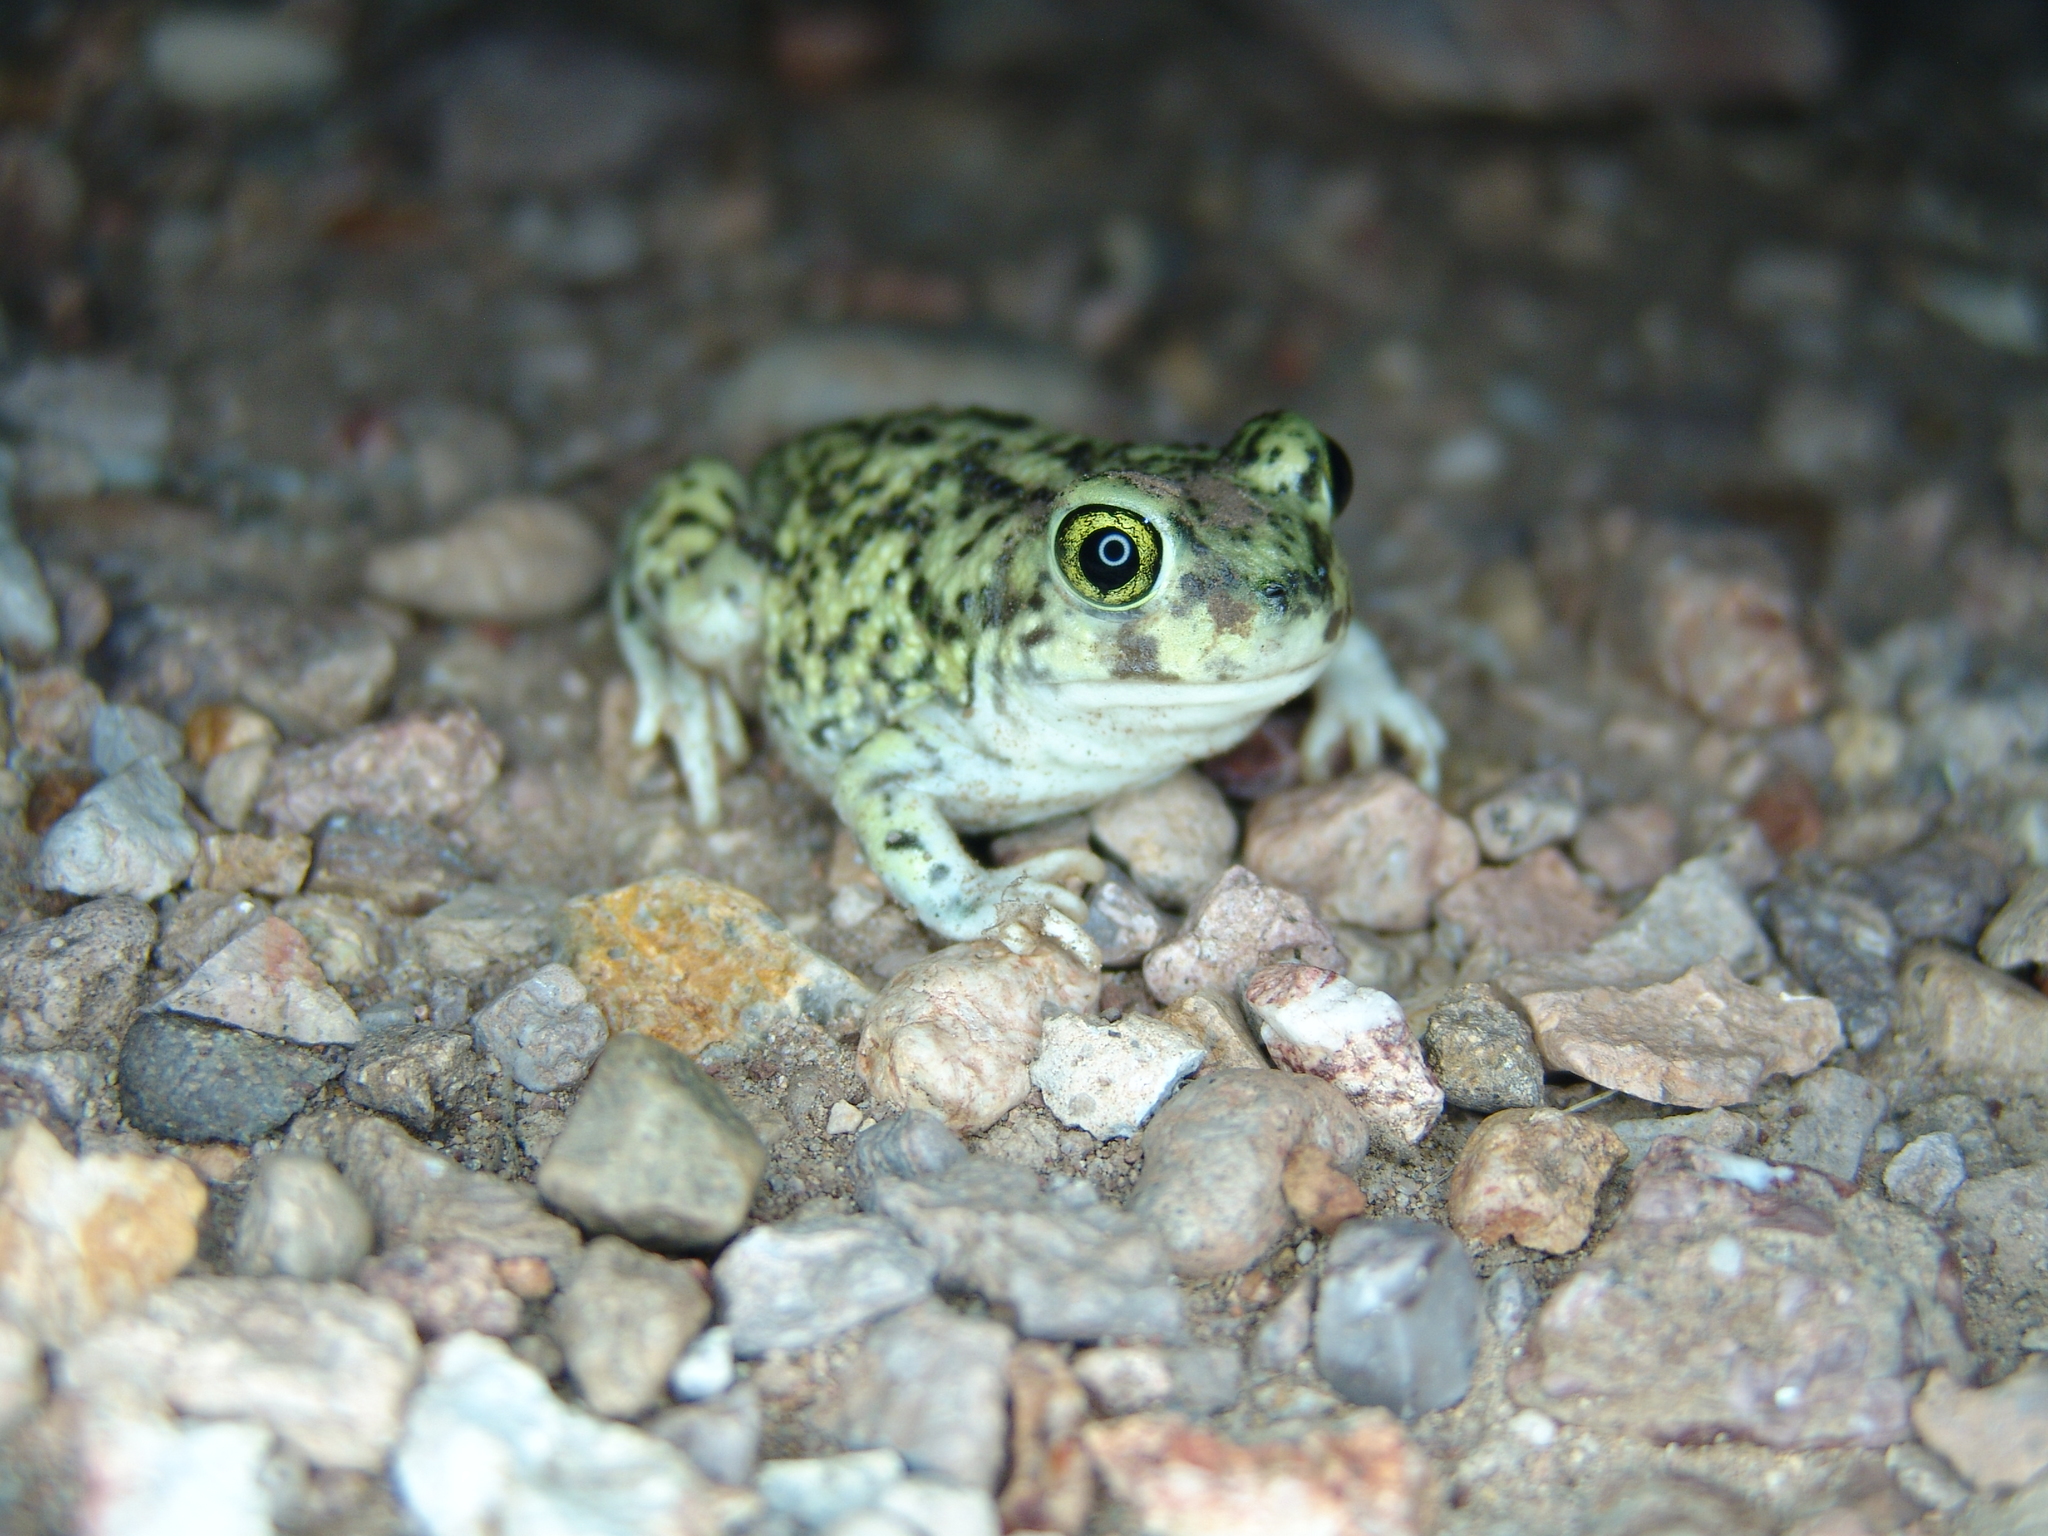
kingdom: Animalia
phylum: Chordata
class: Amphibia
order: Anura
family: Scaphiopodidae
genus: Scaphiopus
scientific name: Scaphiopus couchii
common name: Couch's spadefoot toad
